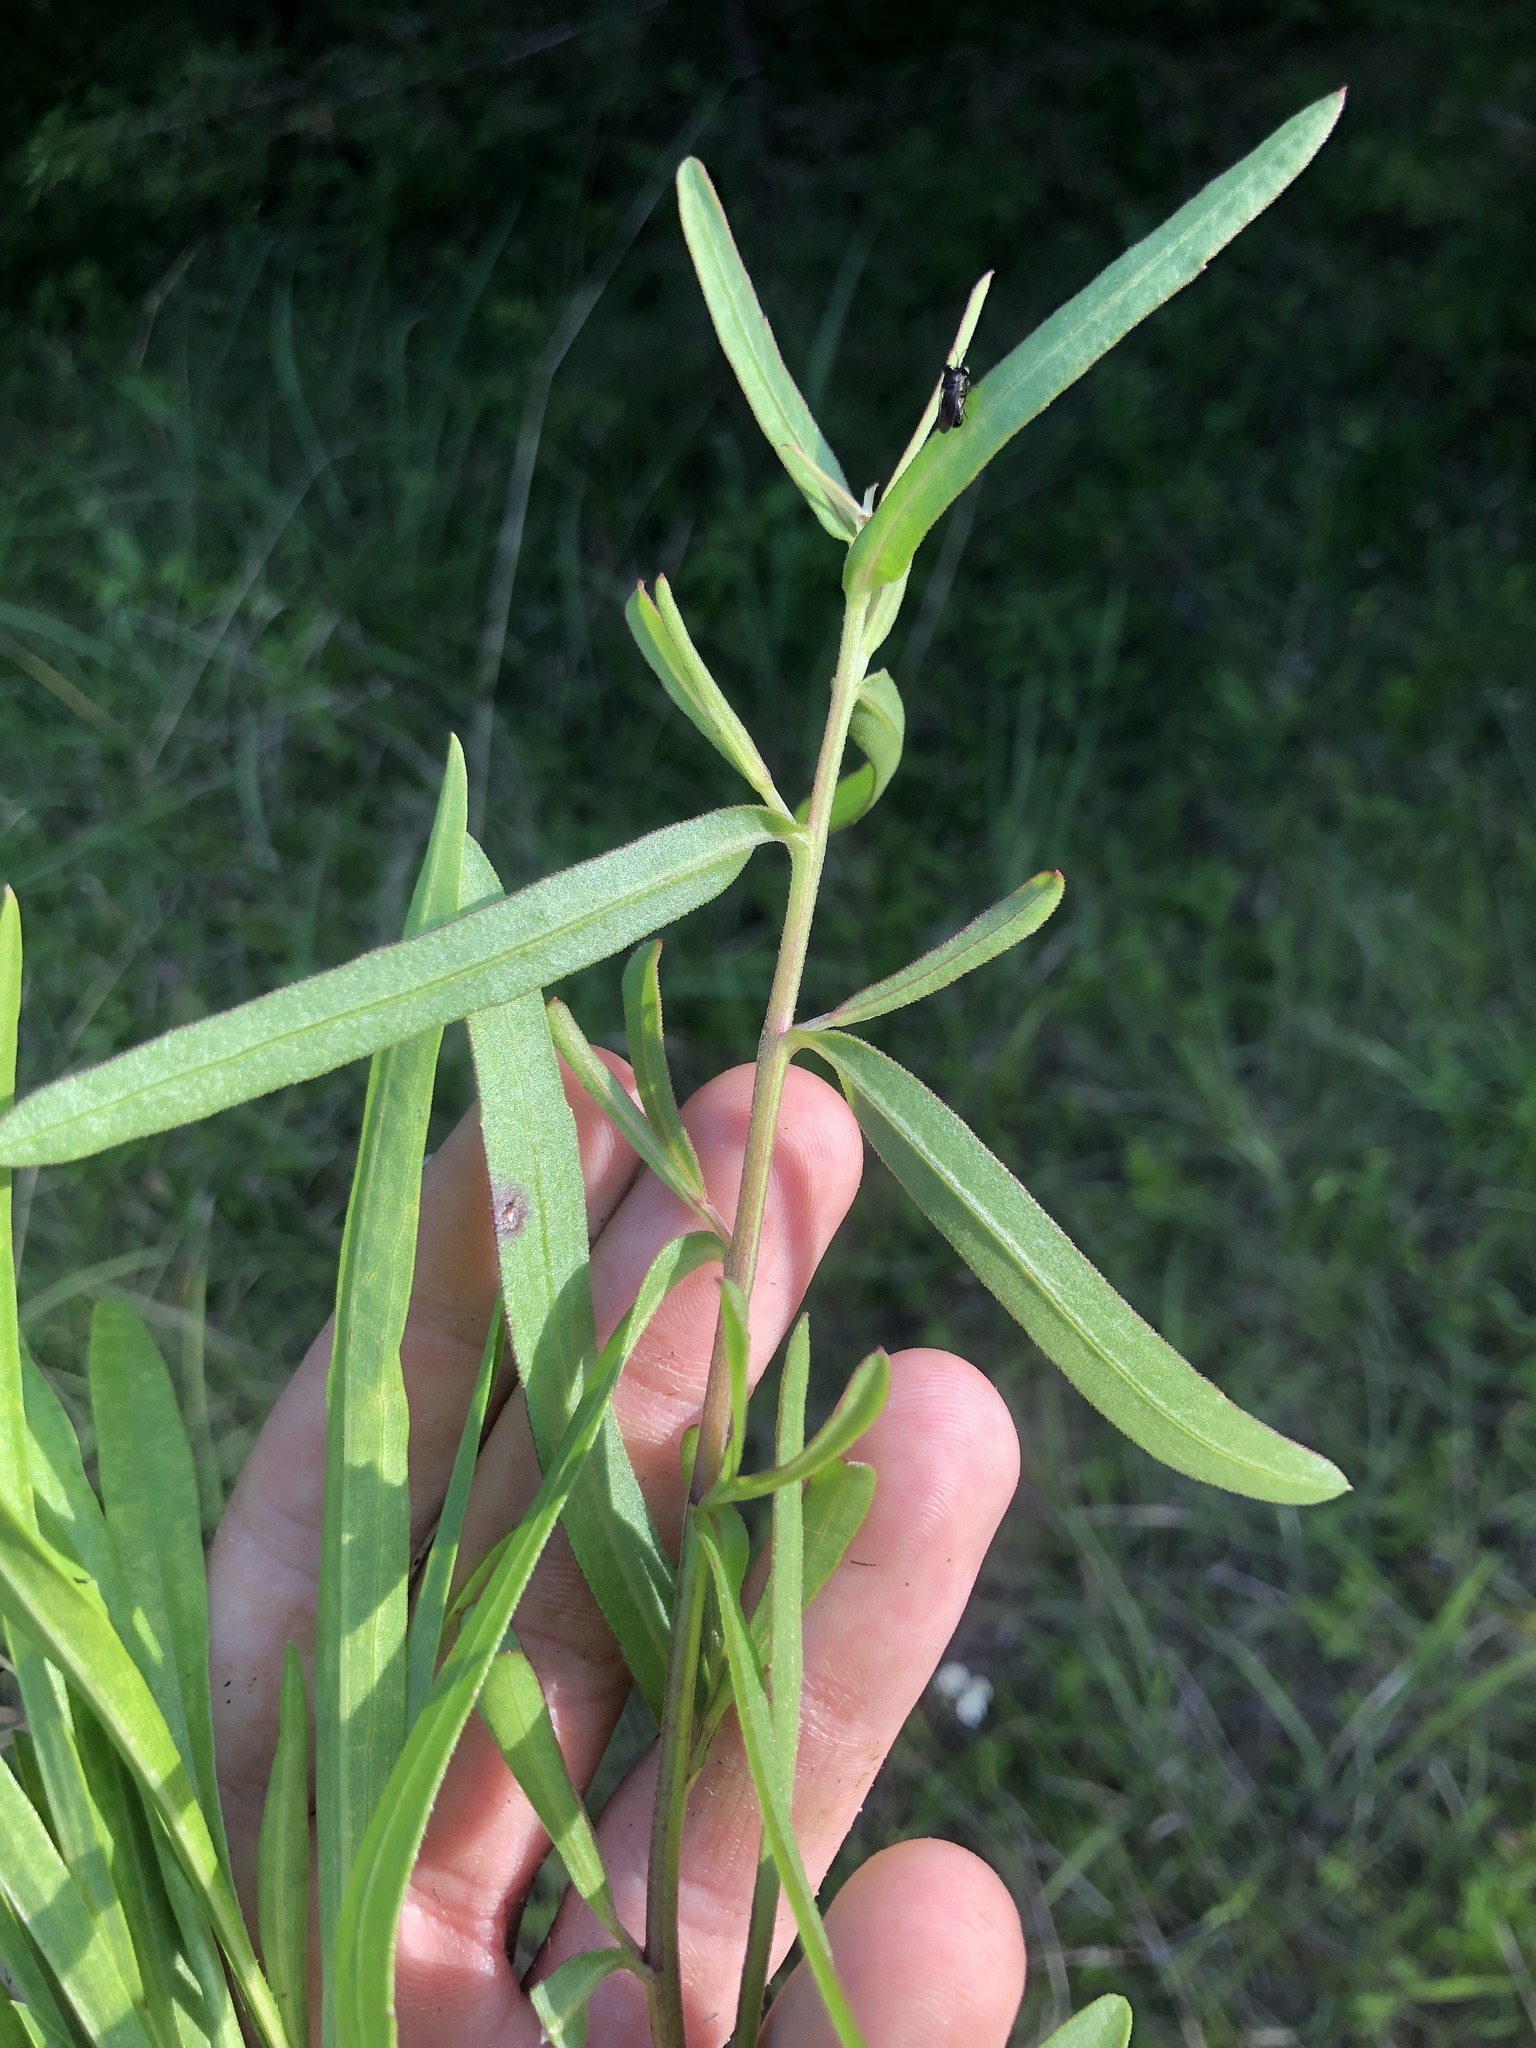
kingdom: Plantae
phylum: Tracheophyta
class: Magnoliopsida
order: Asterales
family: Asteraceae
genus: Gaillardia
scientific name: Gaillardia aestivalis
